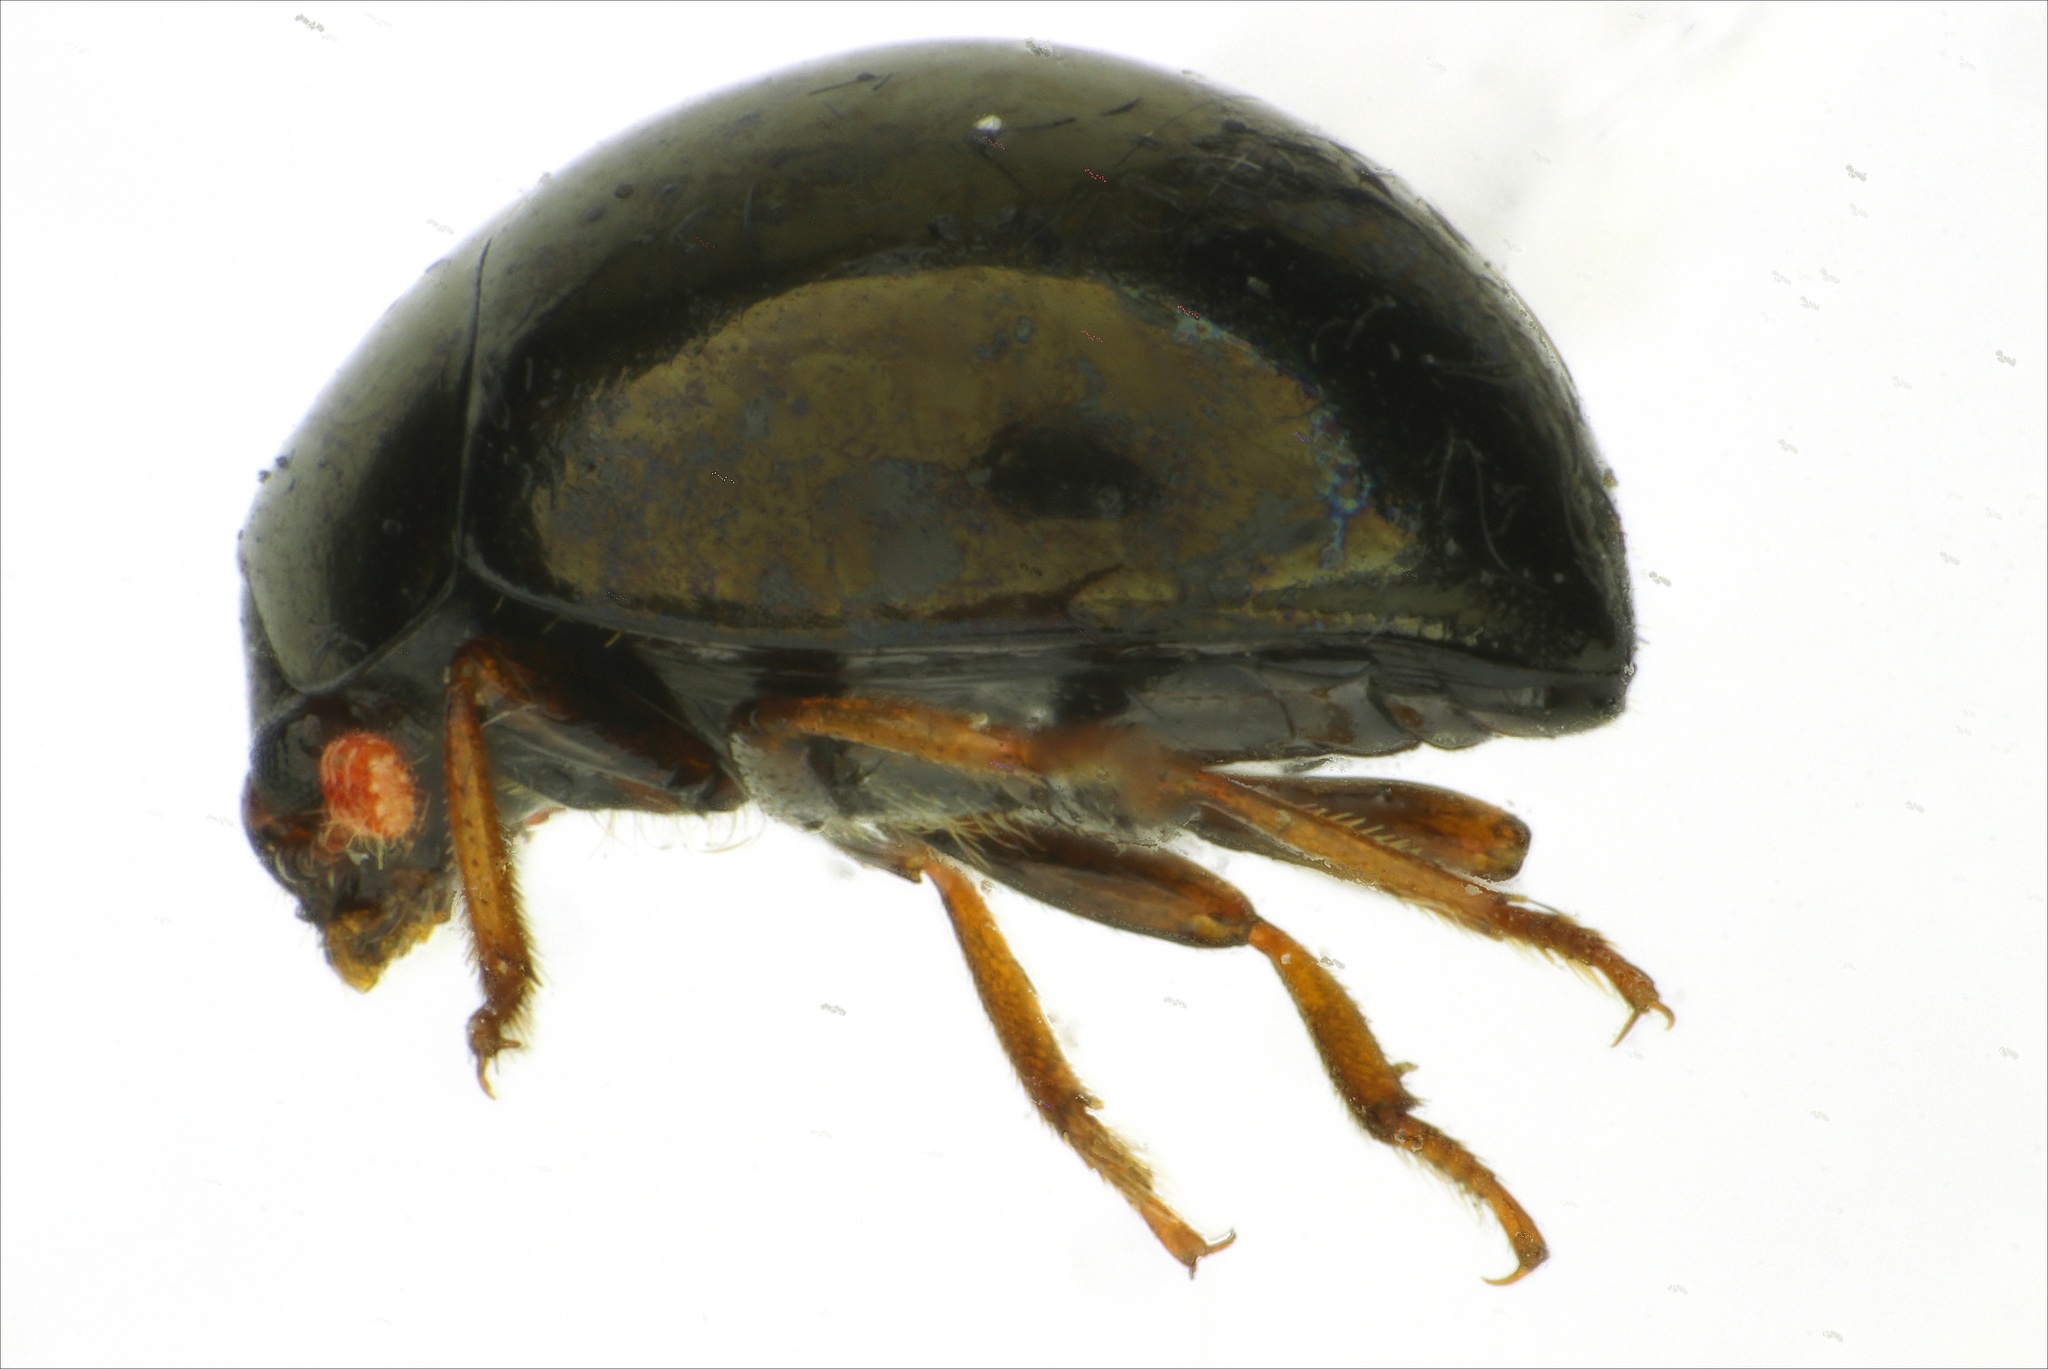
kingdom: Animalia
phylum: Arthropoda
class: Insecta
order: Coleoptera
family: Tenebrionidae
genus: Loxostethus
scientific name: Loxostethus unicolor
